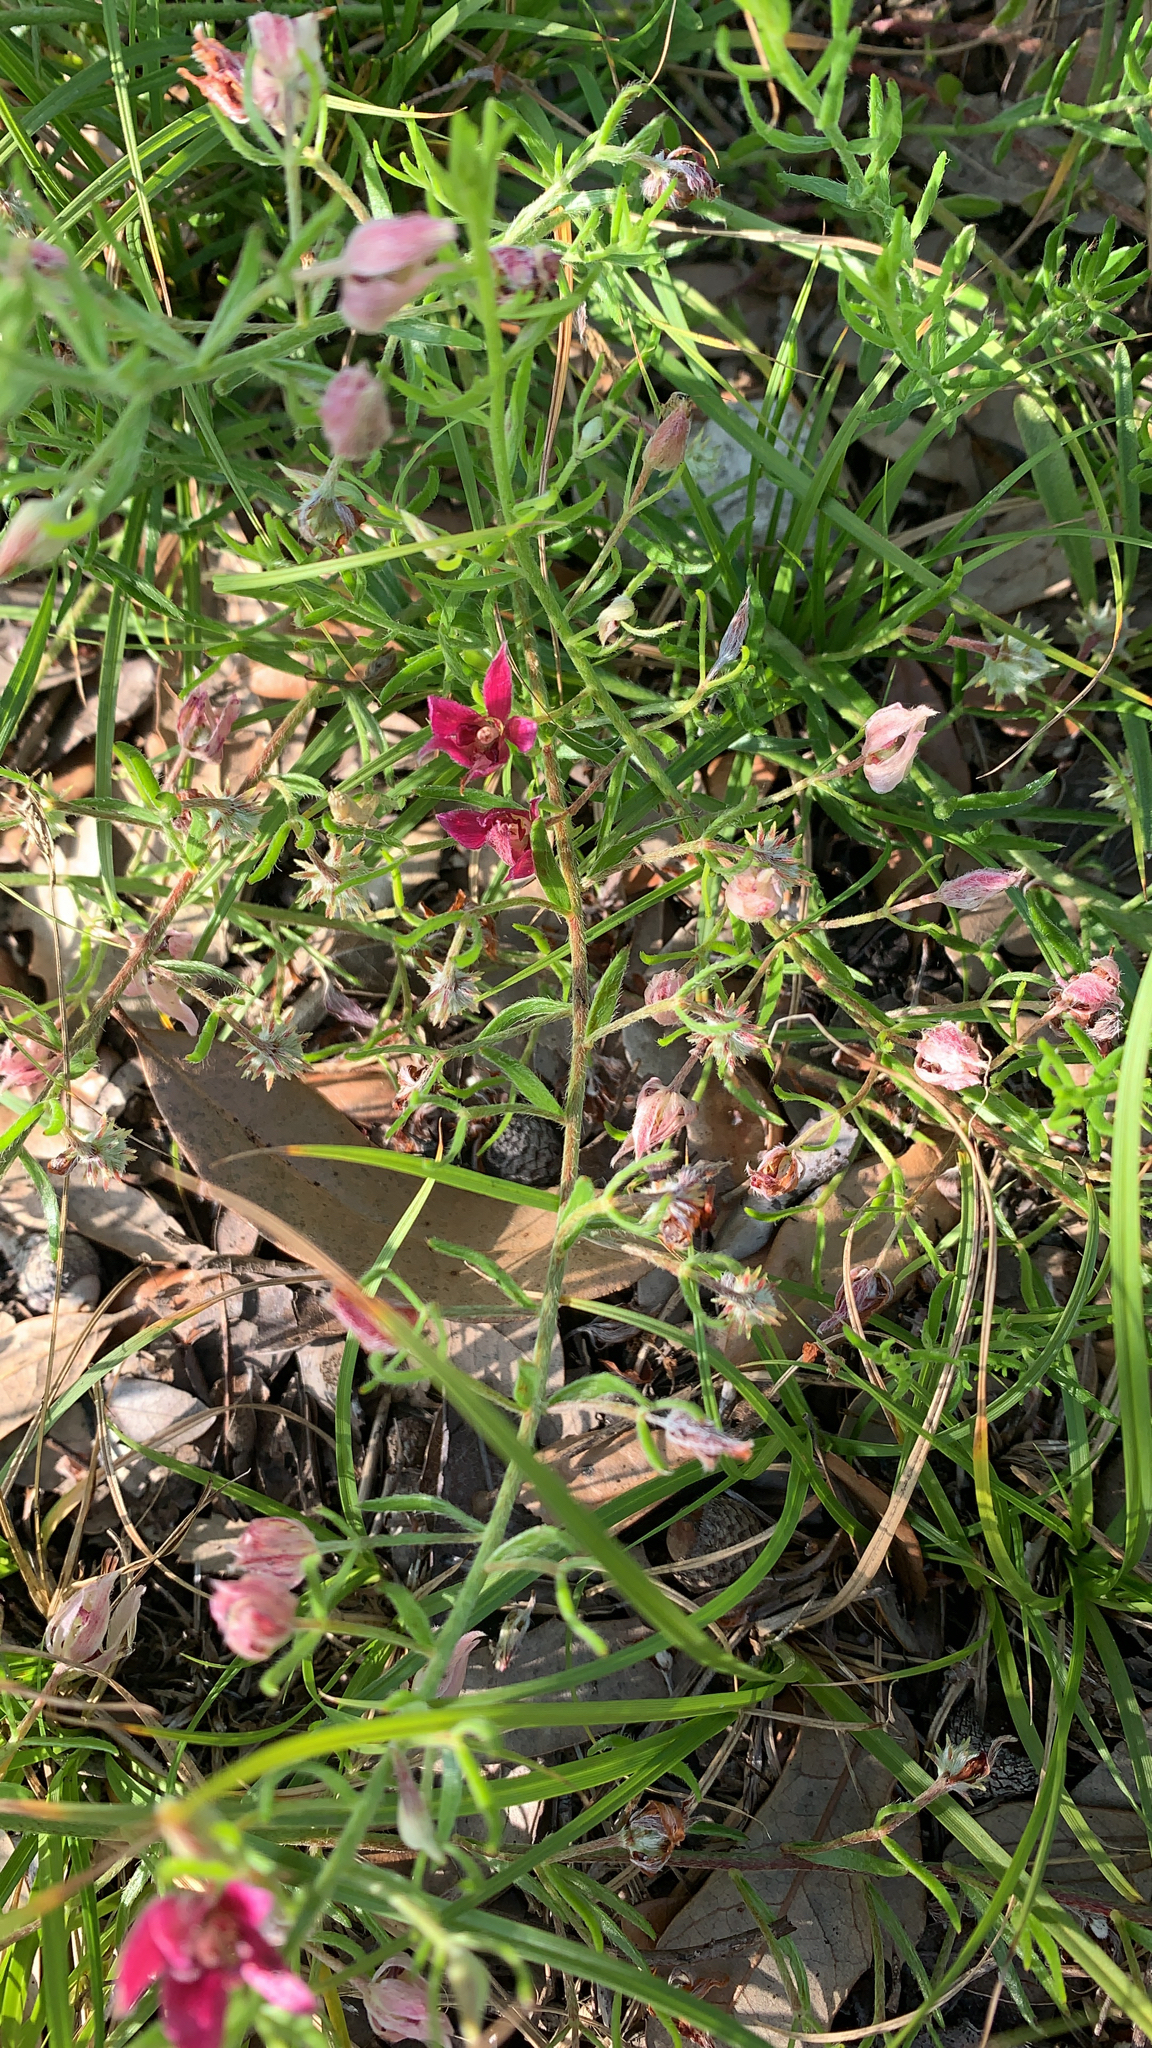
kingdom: Plantae
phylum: Tracheophyta
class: Magnoliopsida
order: Zygophyllales
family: Krameriaceae
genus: Krameria
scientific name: Krameria lanceolata
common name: Ratany
